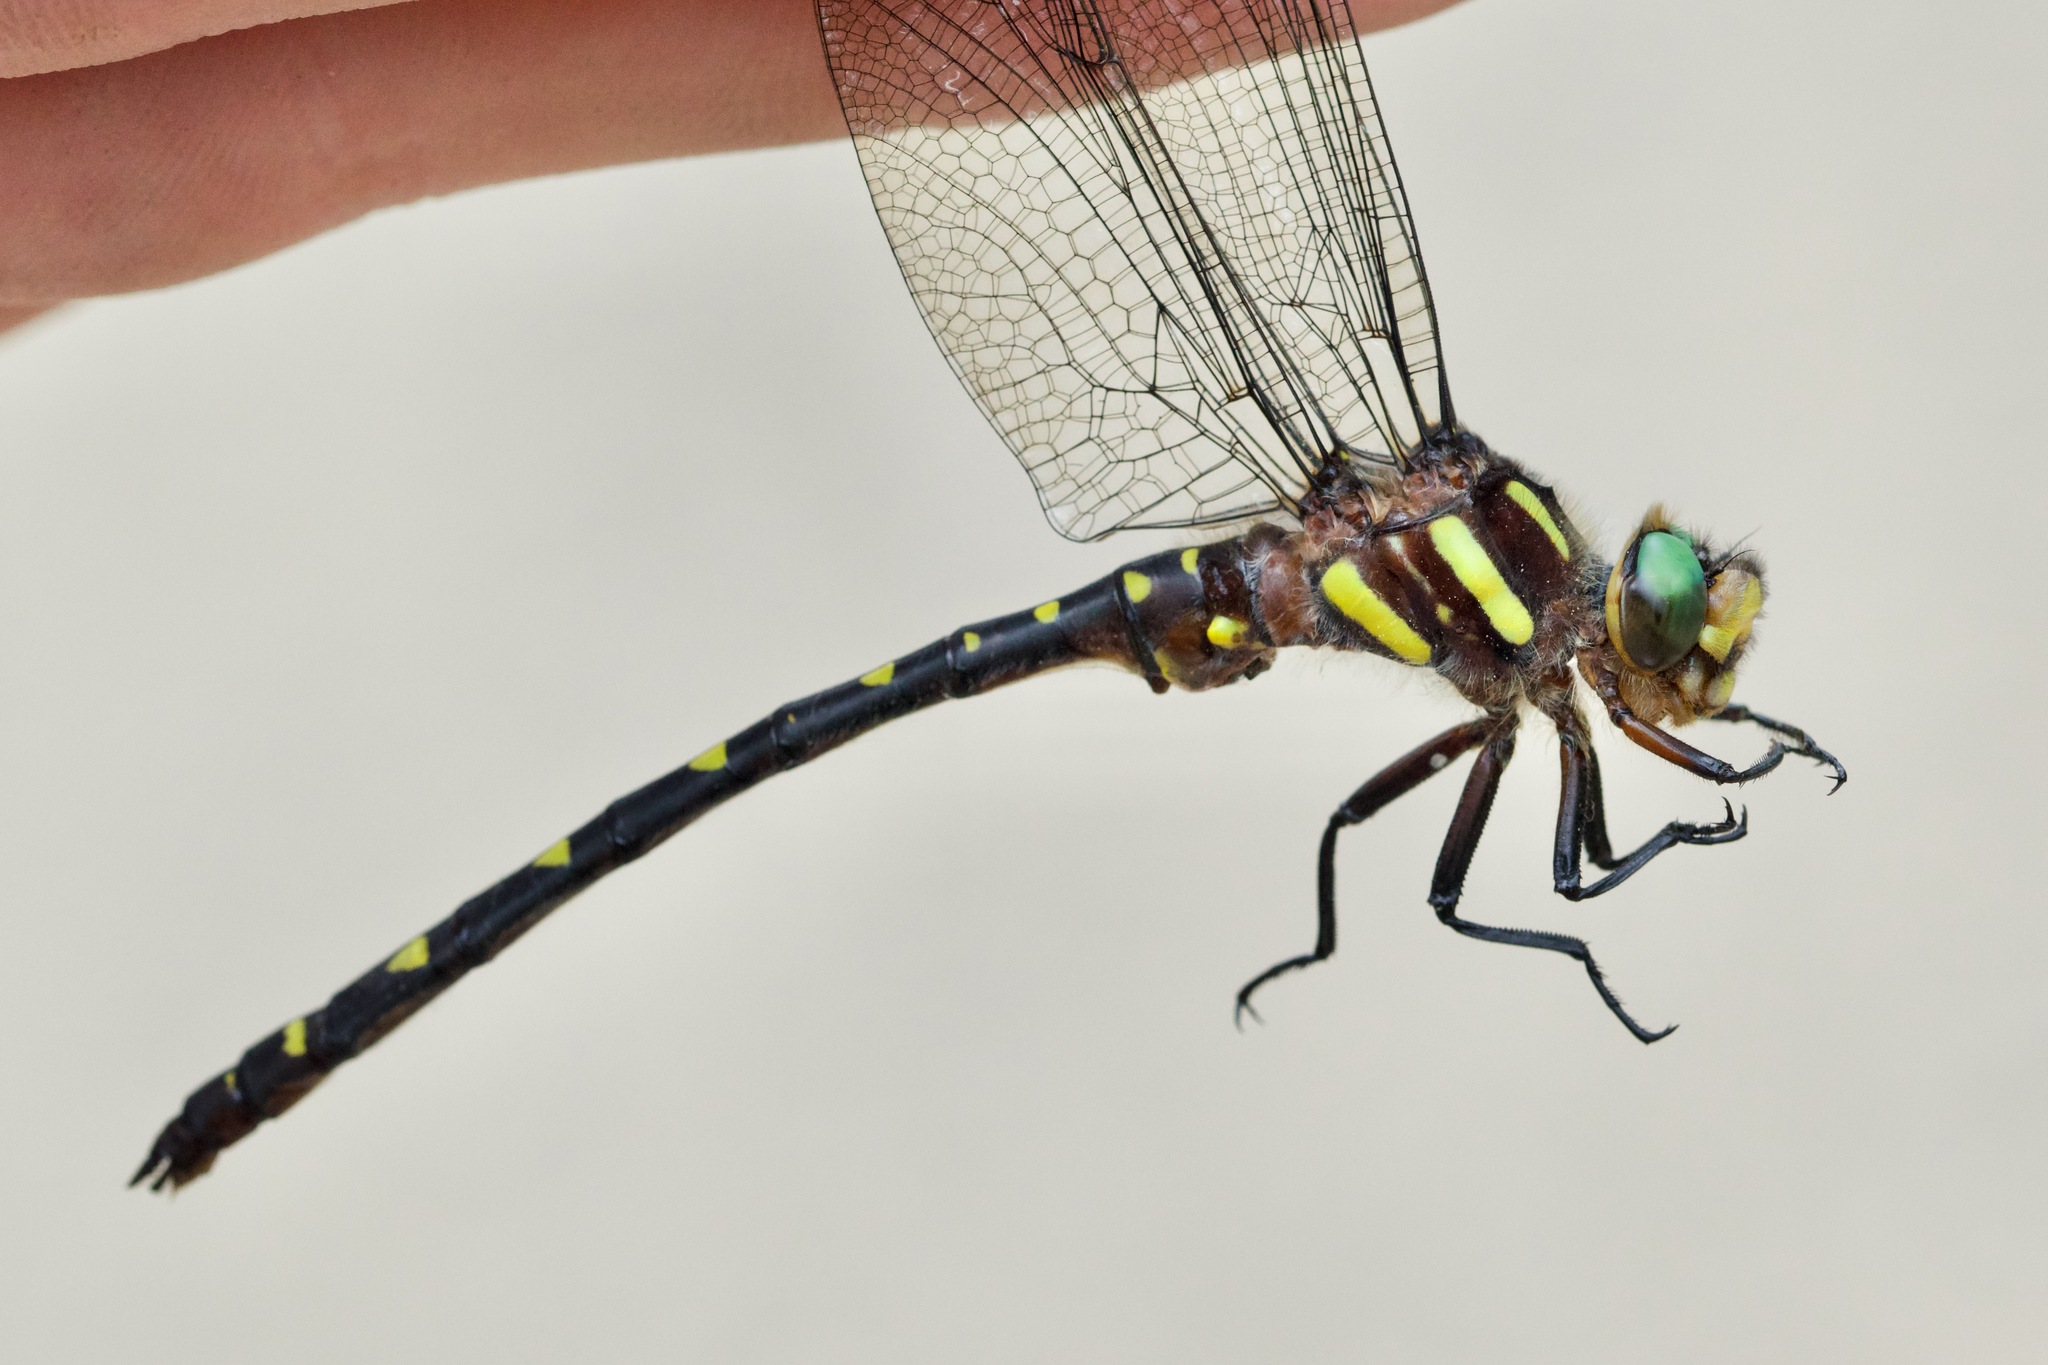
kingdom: Animalia
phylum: Arthropoda
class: Insecta
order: Odonata
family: Cordulegastridae
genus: Cordulegaster
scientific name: Cordulegaster maculata
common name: Twin-spotted spiketail
